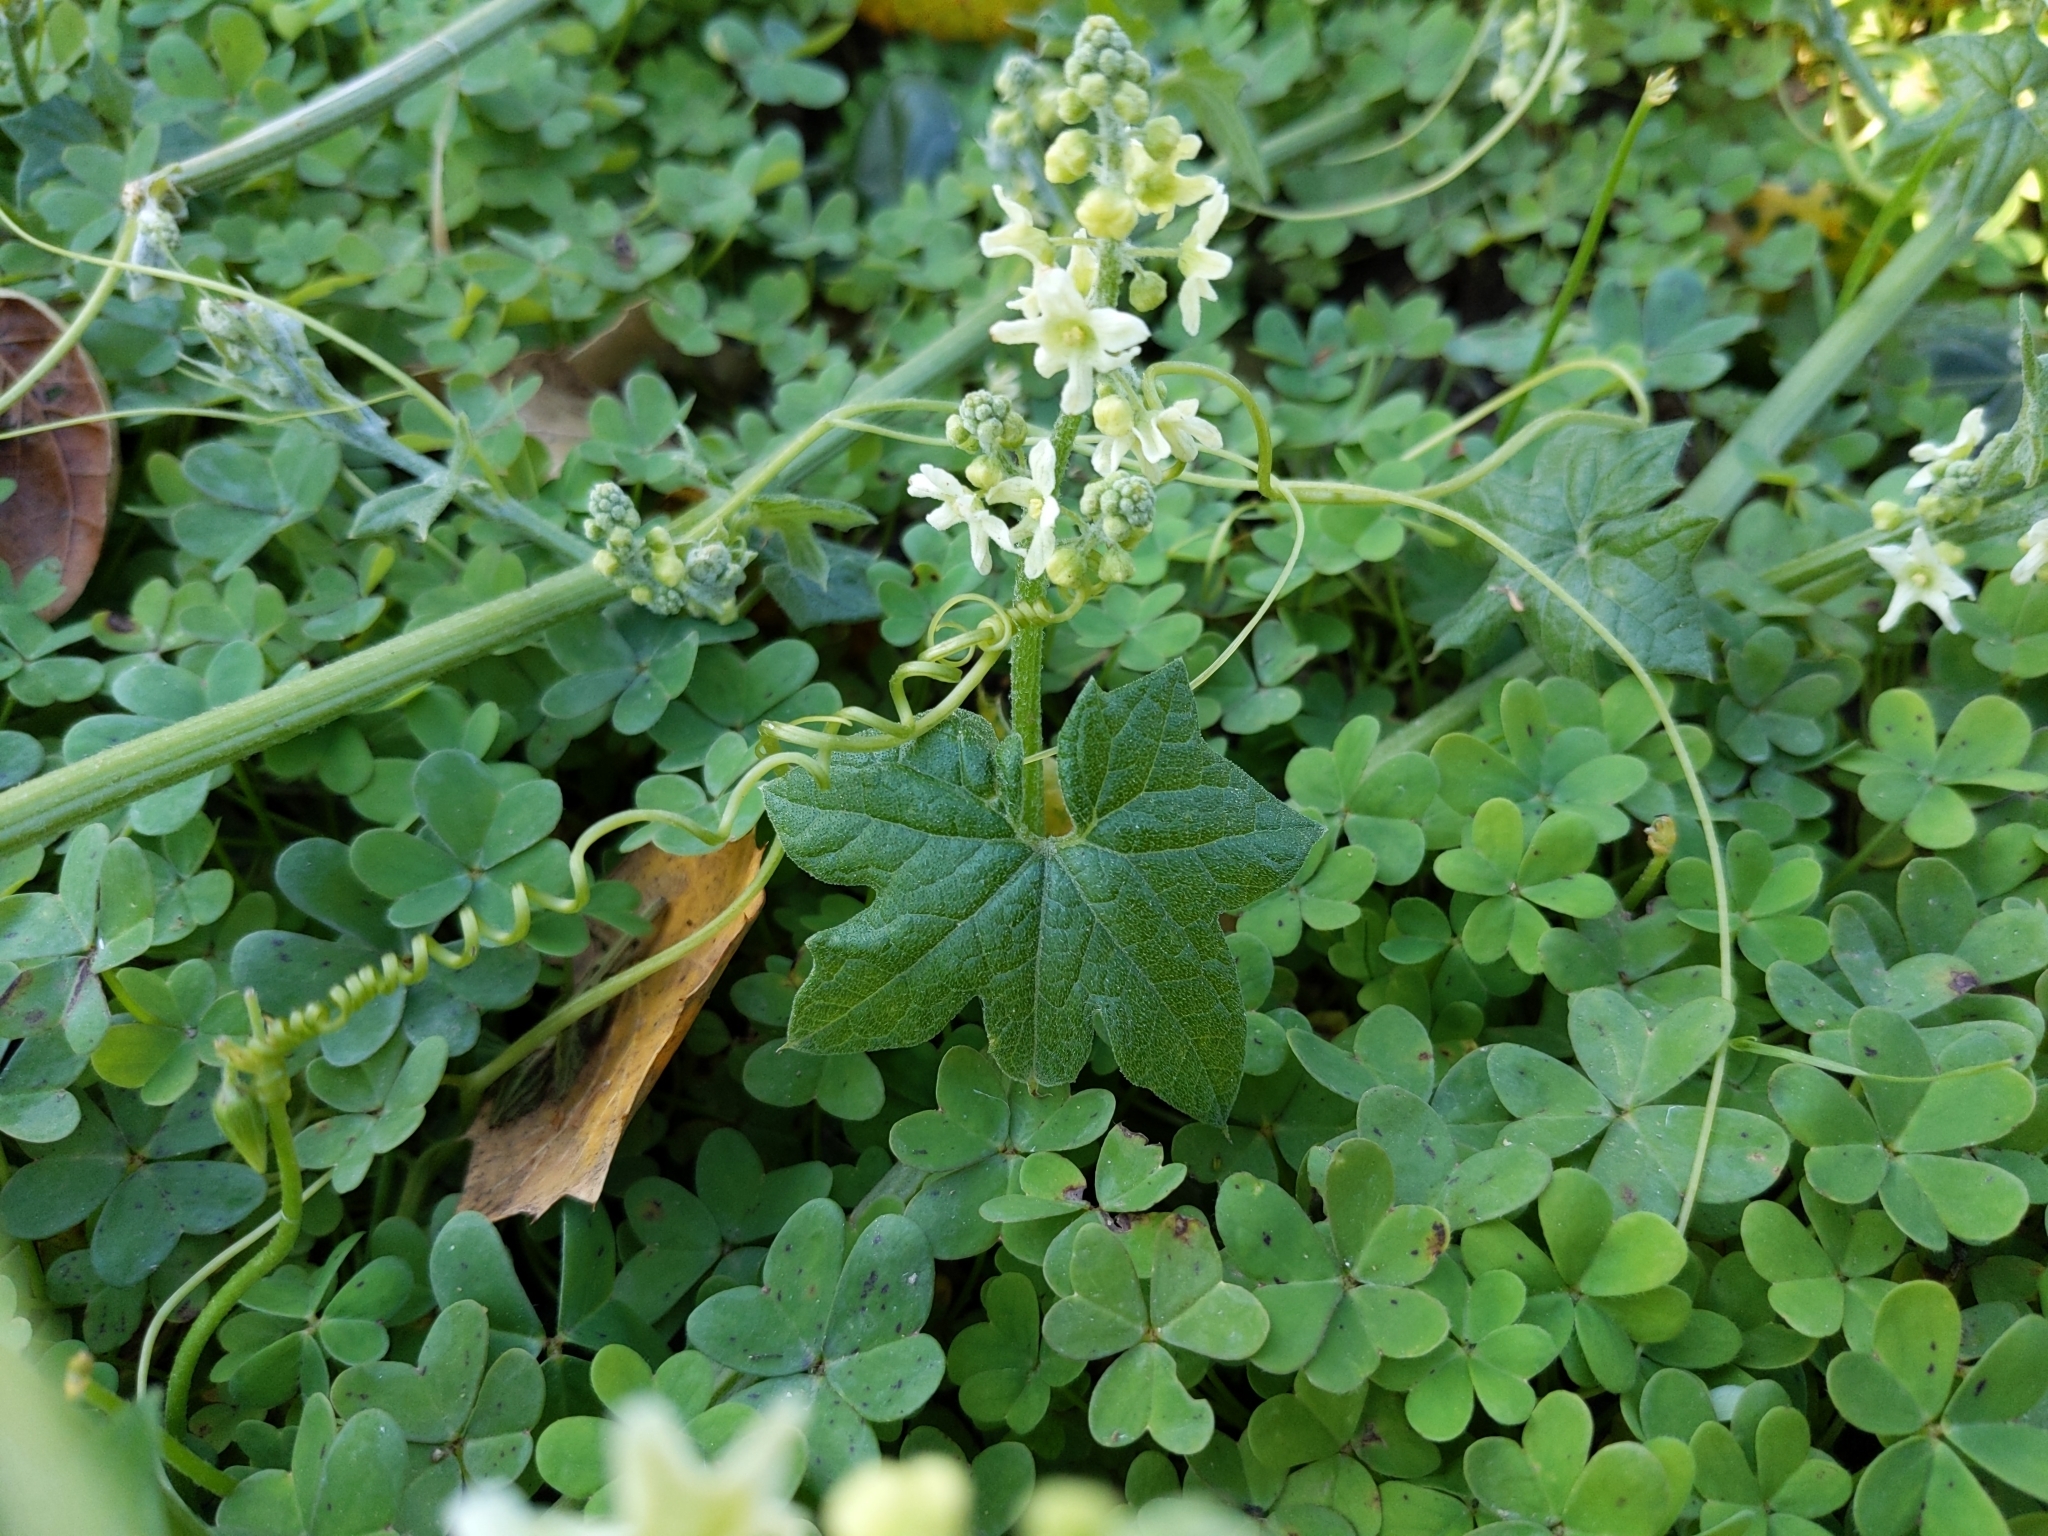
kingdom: Plantae
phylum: Tracheophyta
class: Magnoliopsida
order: Cucurbitales
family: Cucurbitaceae
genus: Marah
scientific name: Marah fabacea
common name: California manroot
